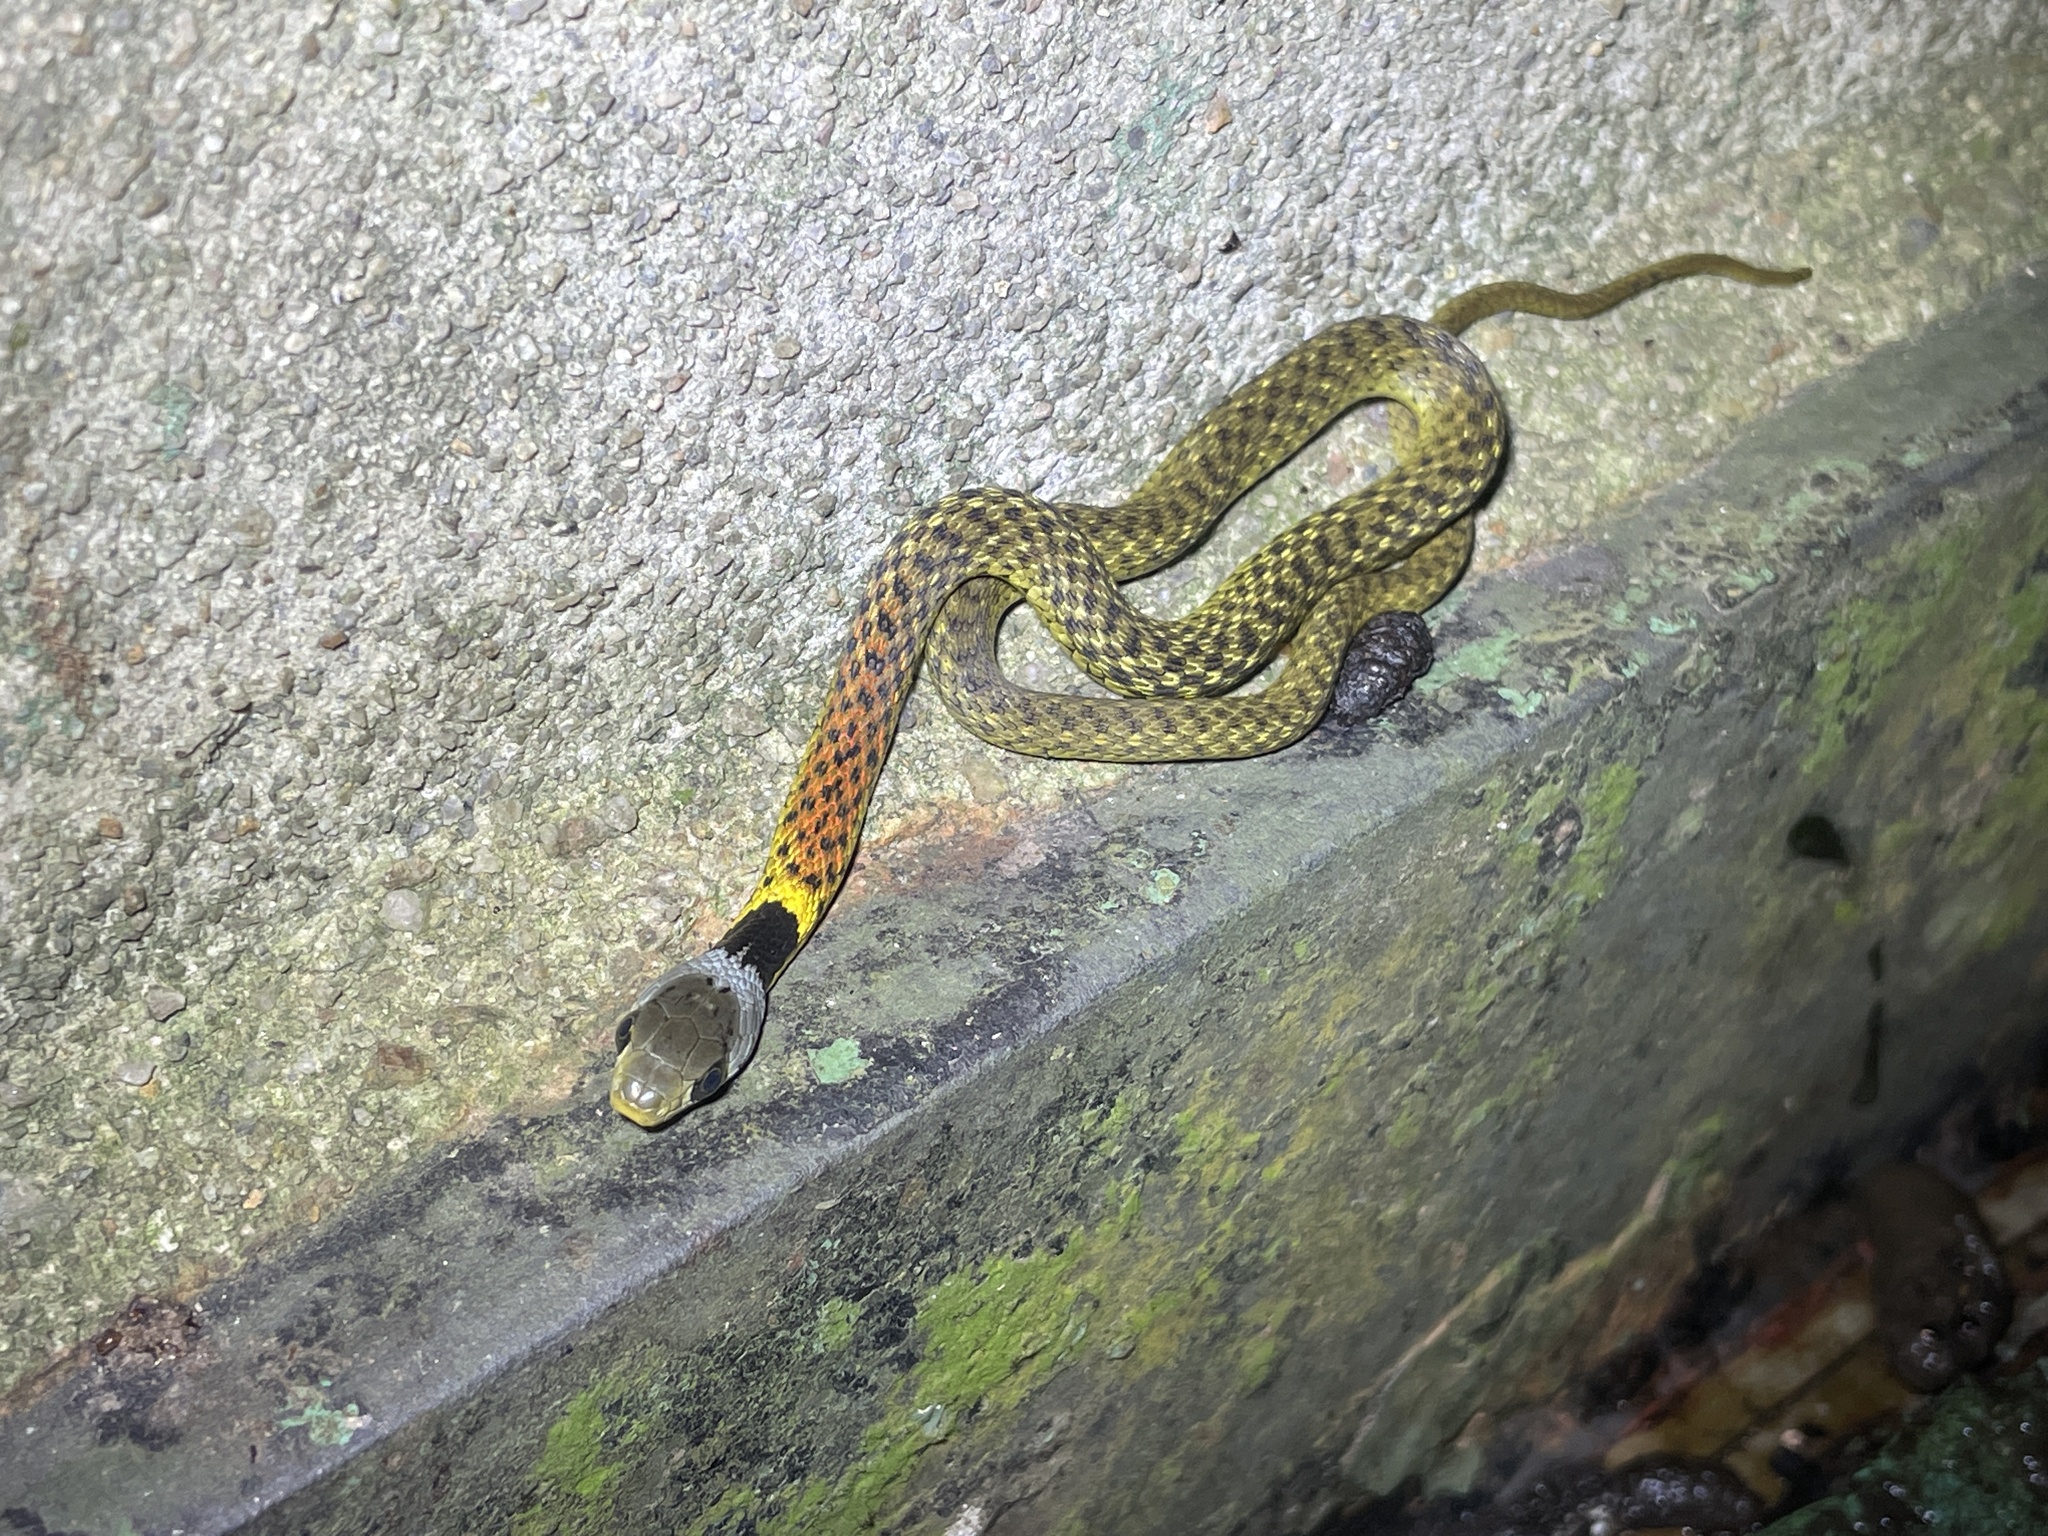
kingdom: Animalia
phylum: Chordata
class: Squamata
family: Colubridae
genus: Rhabdophis
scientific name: Rhabdophis helleri
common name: Heller’s red-necked keelback
